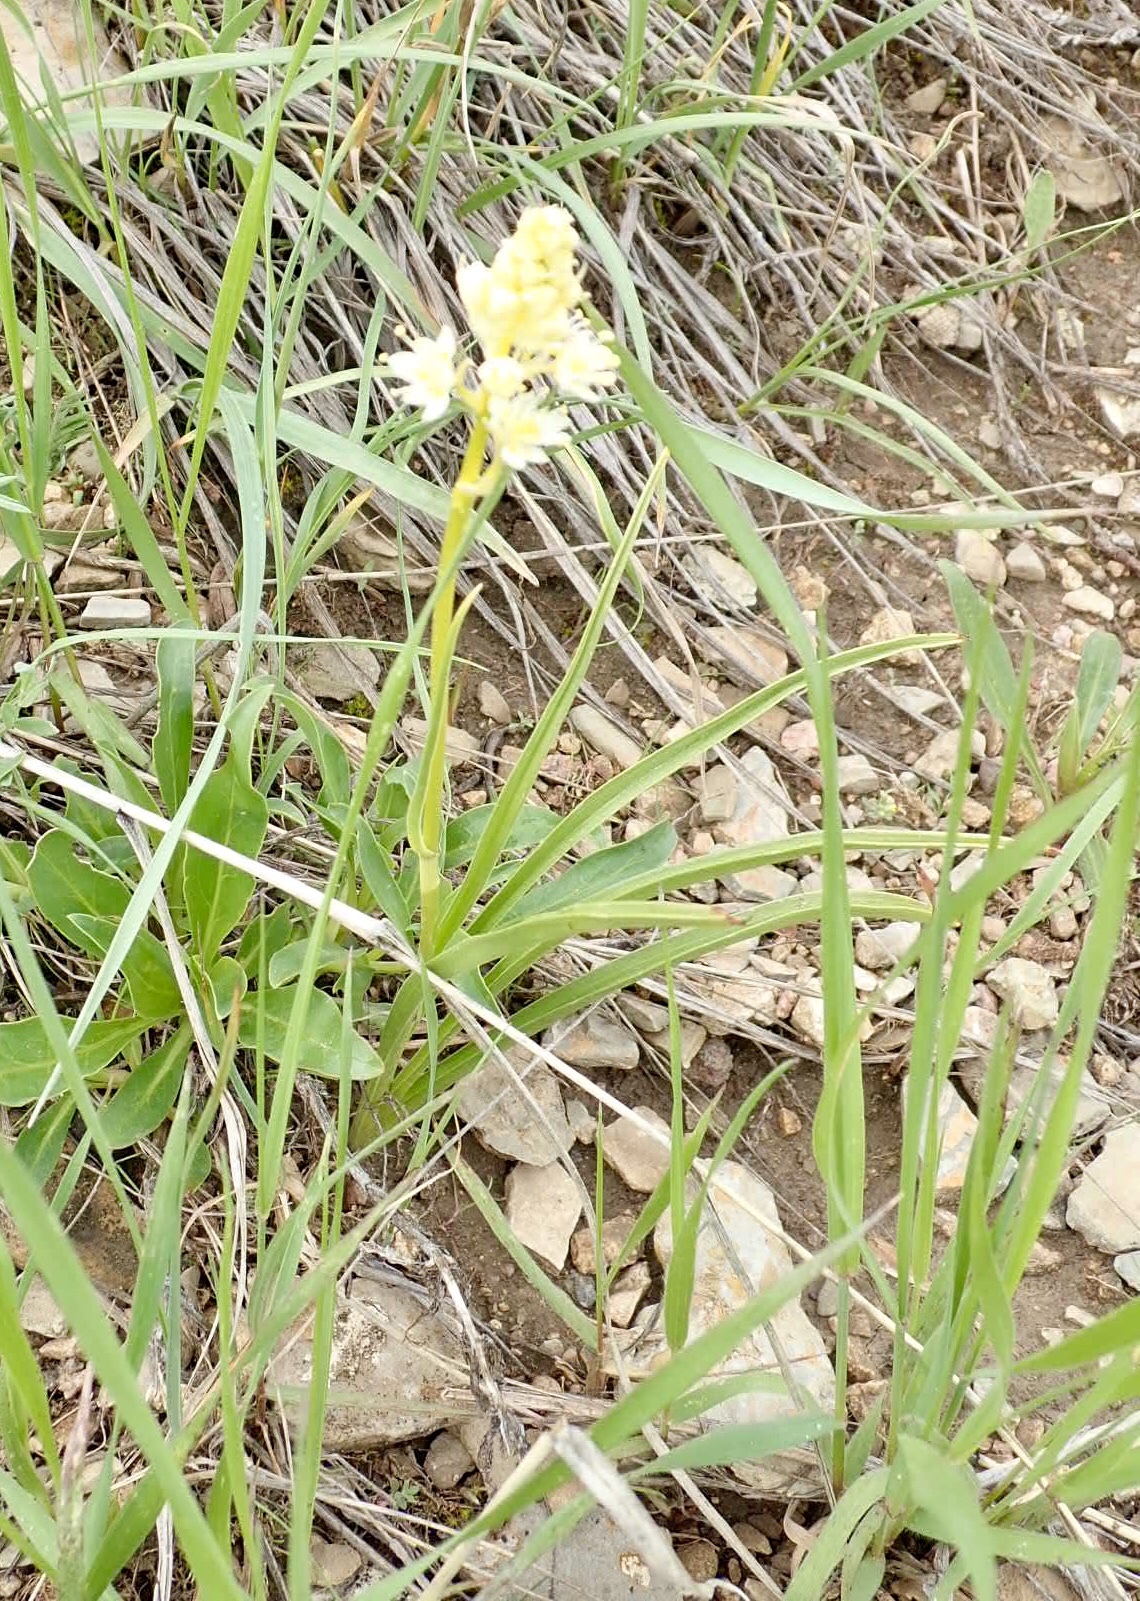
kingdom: Plantae
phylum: Tracheophyta
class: Liliopsida
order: Liliales
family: Melanthiaceae
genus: Toxicoscordion
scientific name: Toxicoscordion venenosum
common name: Meadow death camas
